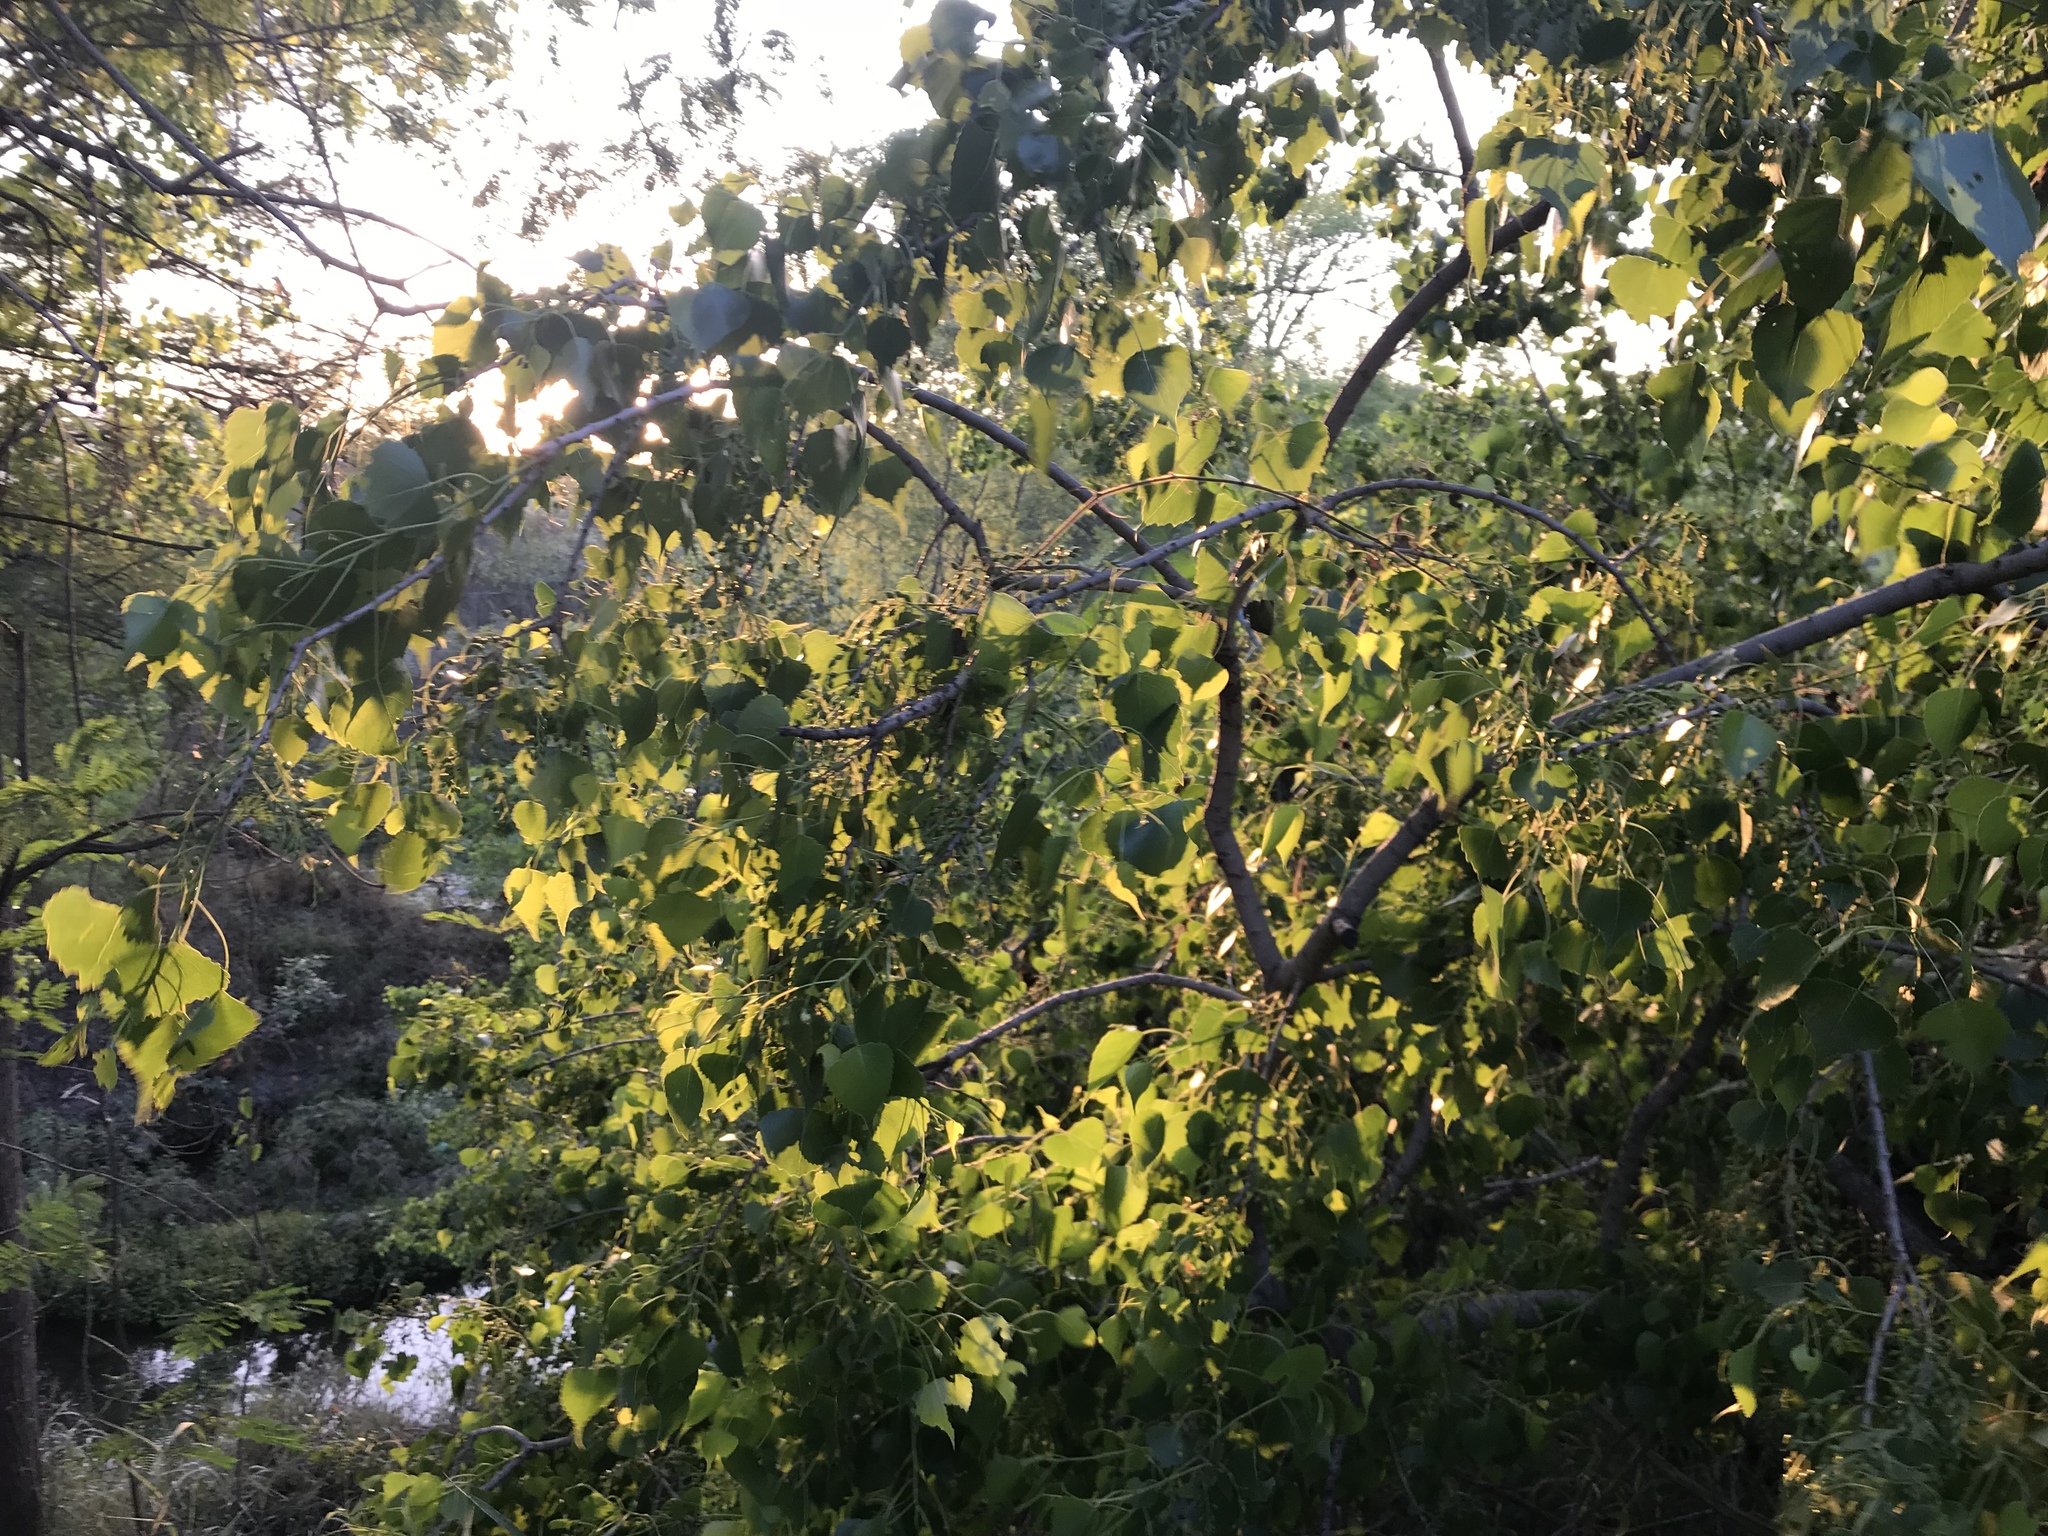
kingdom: Plantae
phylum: Tracheophyta
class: Magnoliopsida
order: Malpighiales
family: Salicaceae
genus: Populus
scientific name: Populus deltoides
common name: Eastern cottonwood
